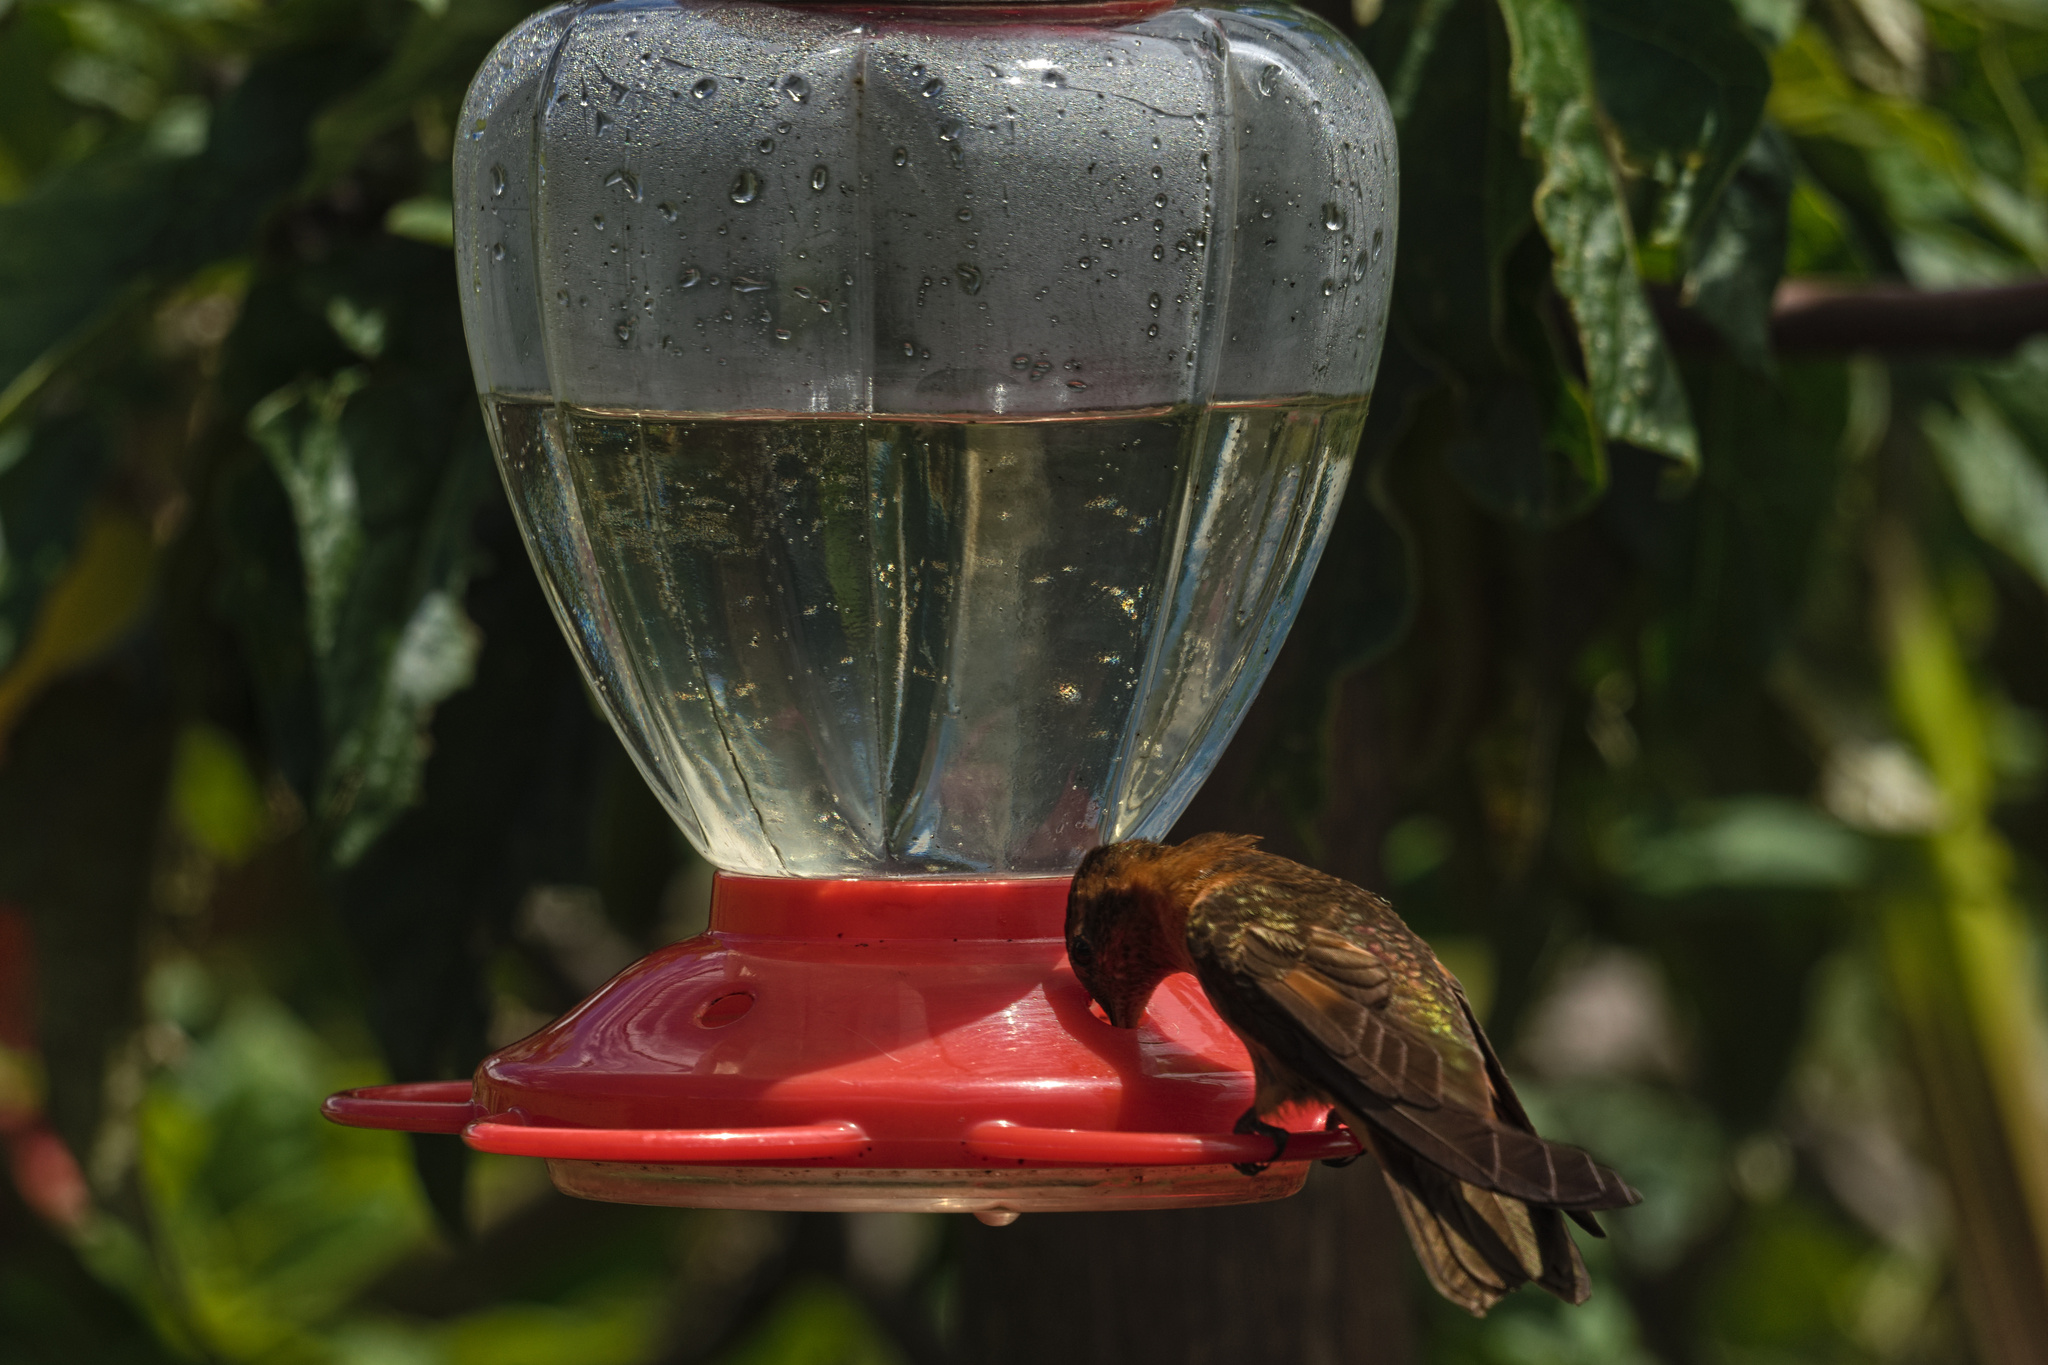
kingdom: Animalia
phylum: Chordata
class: Aves
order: Apodiformes
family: Trochilidae
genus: Aglaeactis
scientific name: Aglaeactis cupripennis
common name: Shining sunbeam
